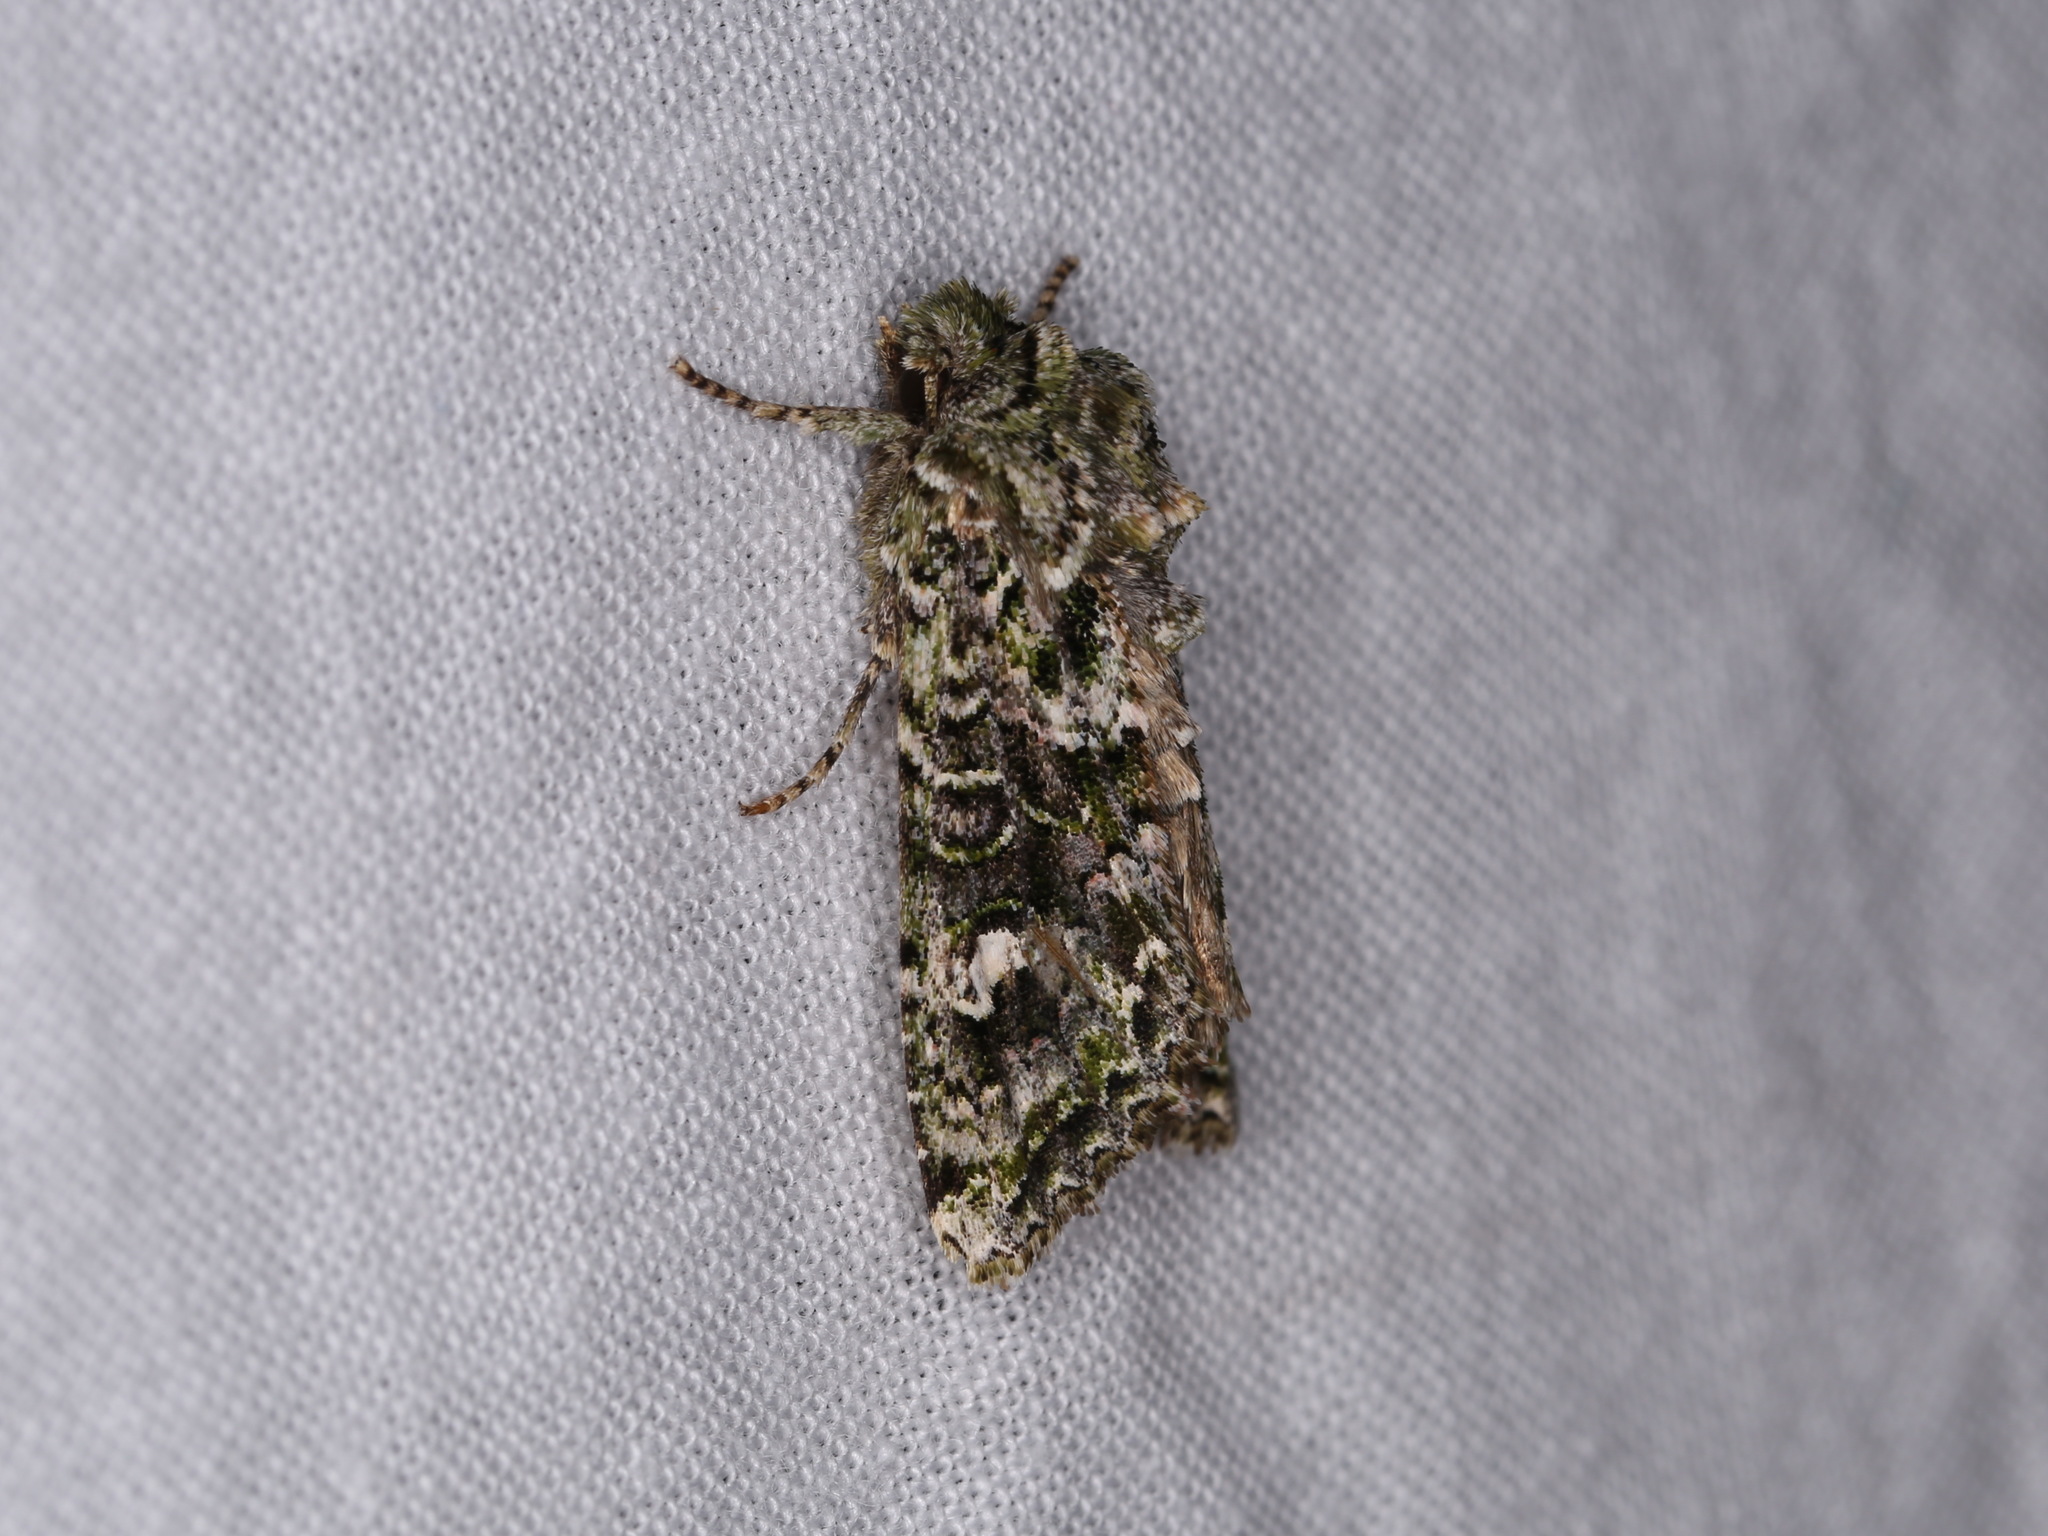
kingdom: Animalia
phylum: Arthropoda
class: Insecta
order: Lepidoptera
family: Noctuidae
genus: Ichneutica
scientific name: Ichneutica
